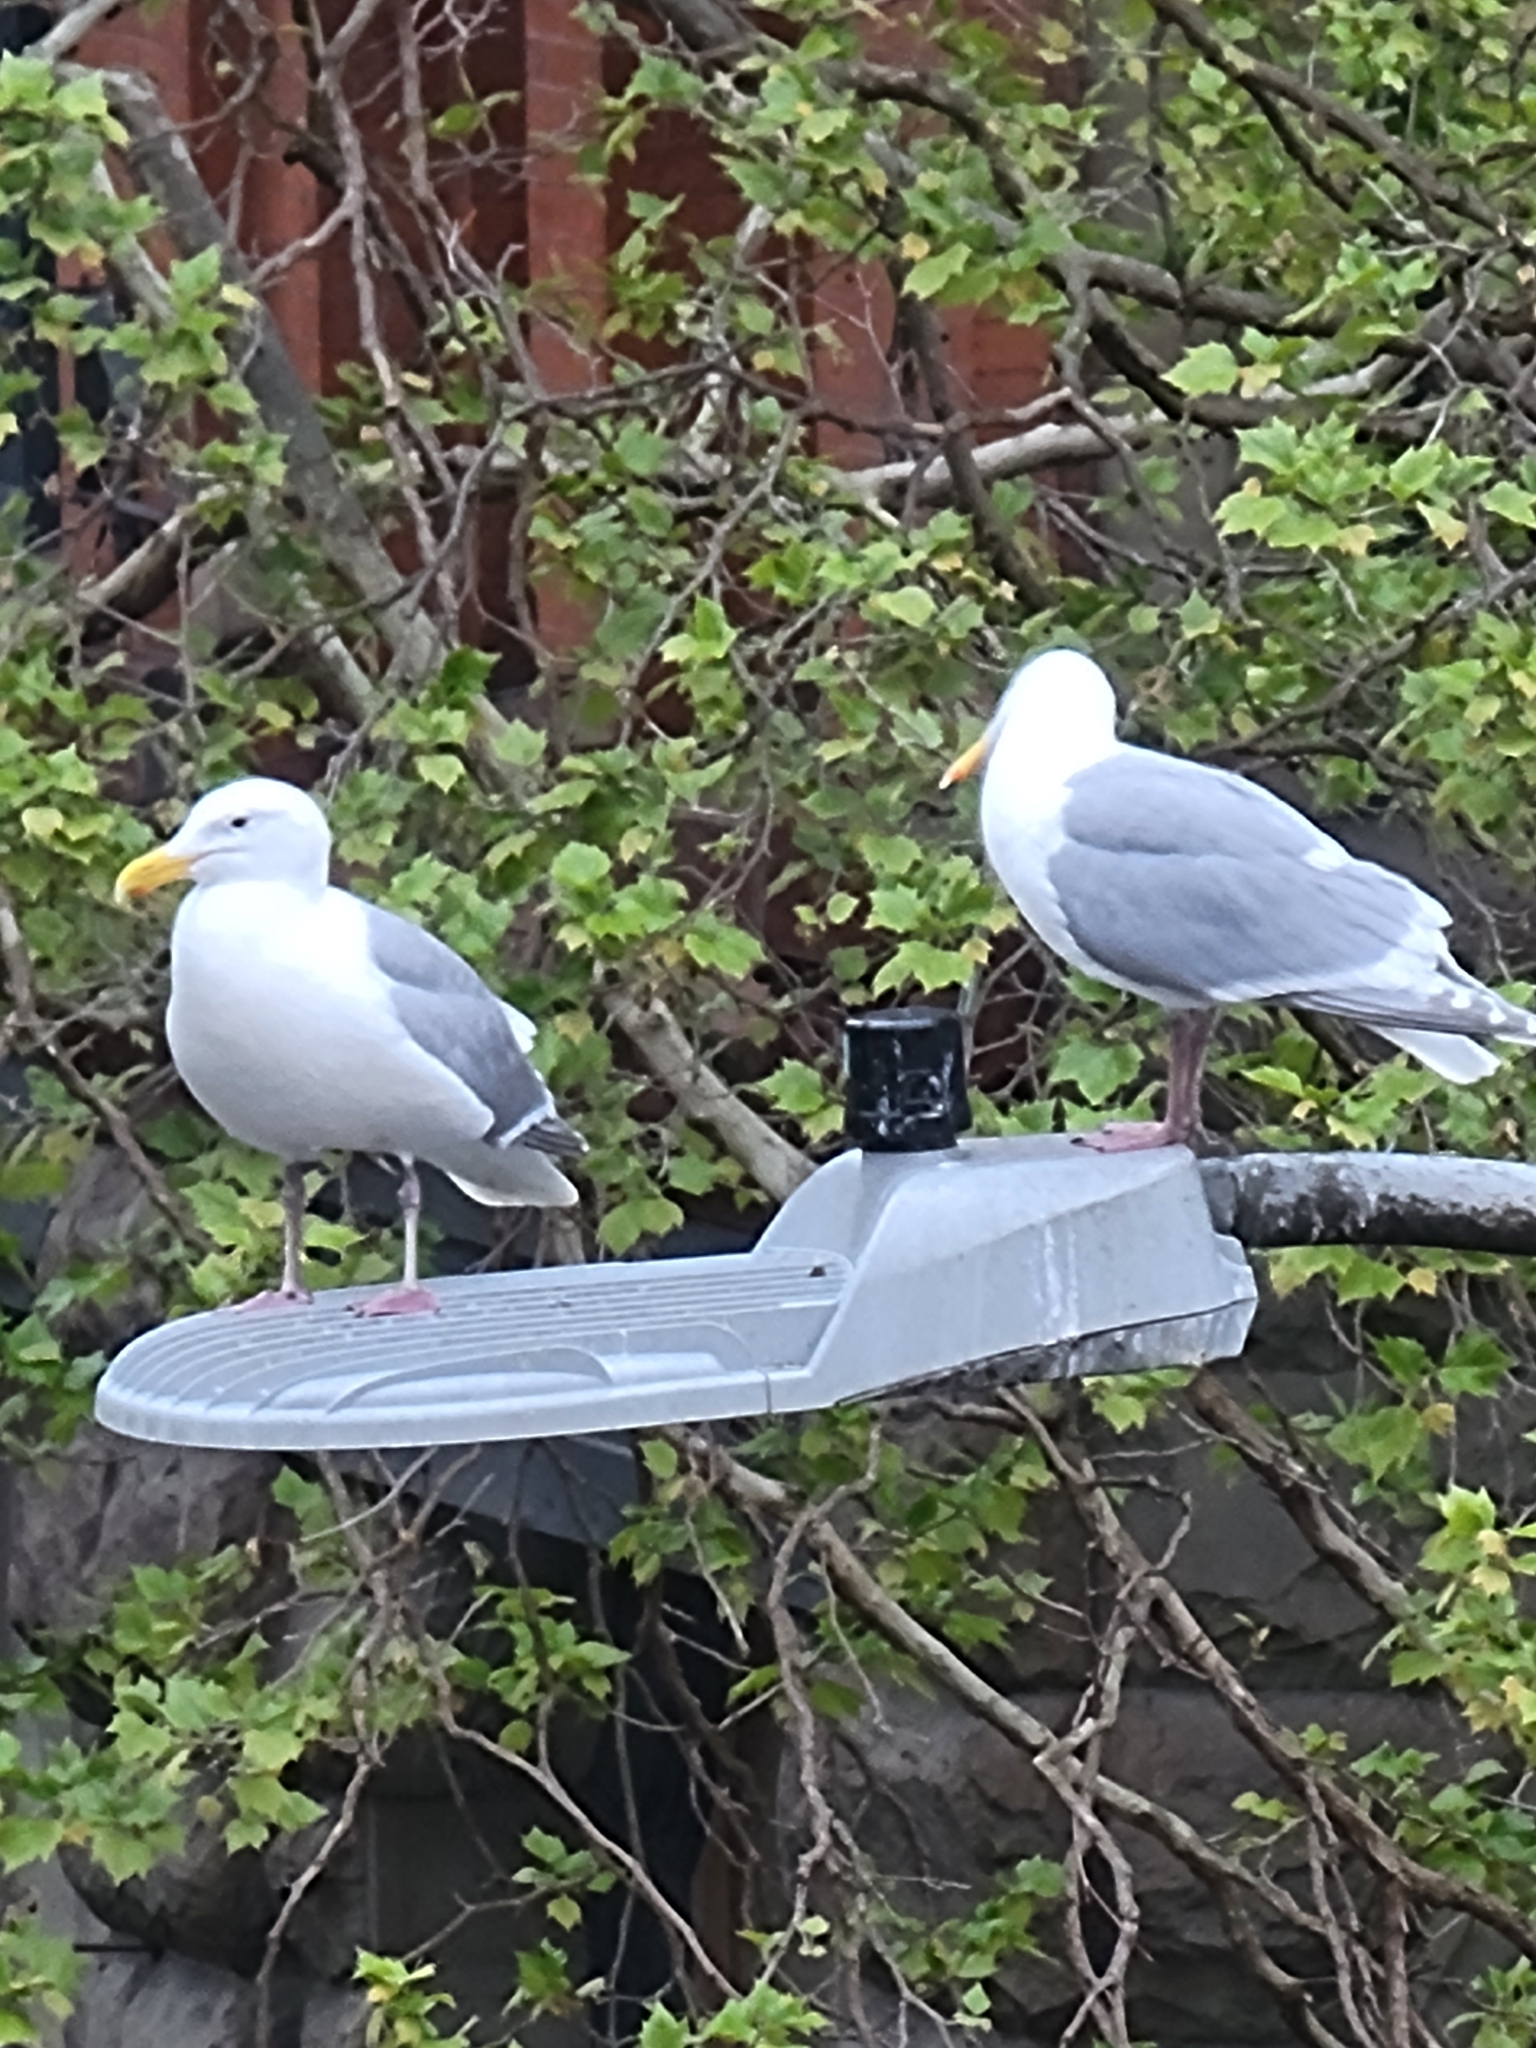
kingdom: Animalia
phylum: Chordata
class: Aves
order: Charadriiformes
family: Laridae
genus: Larus
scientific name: Larus
